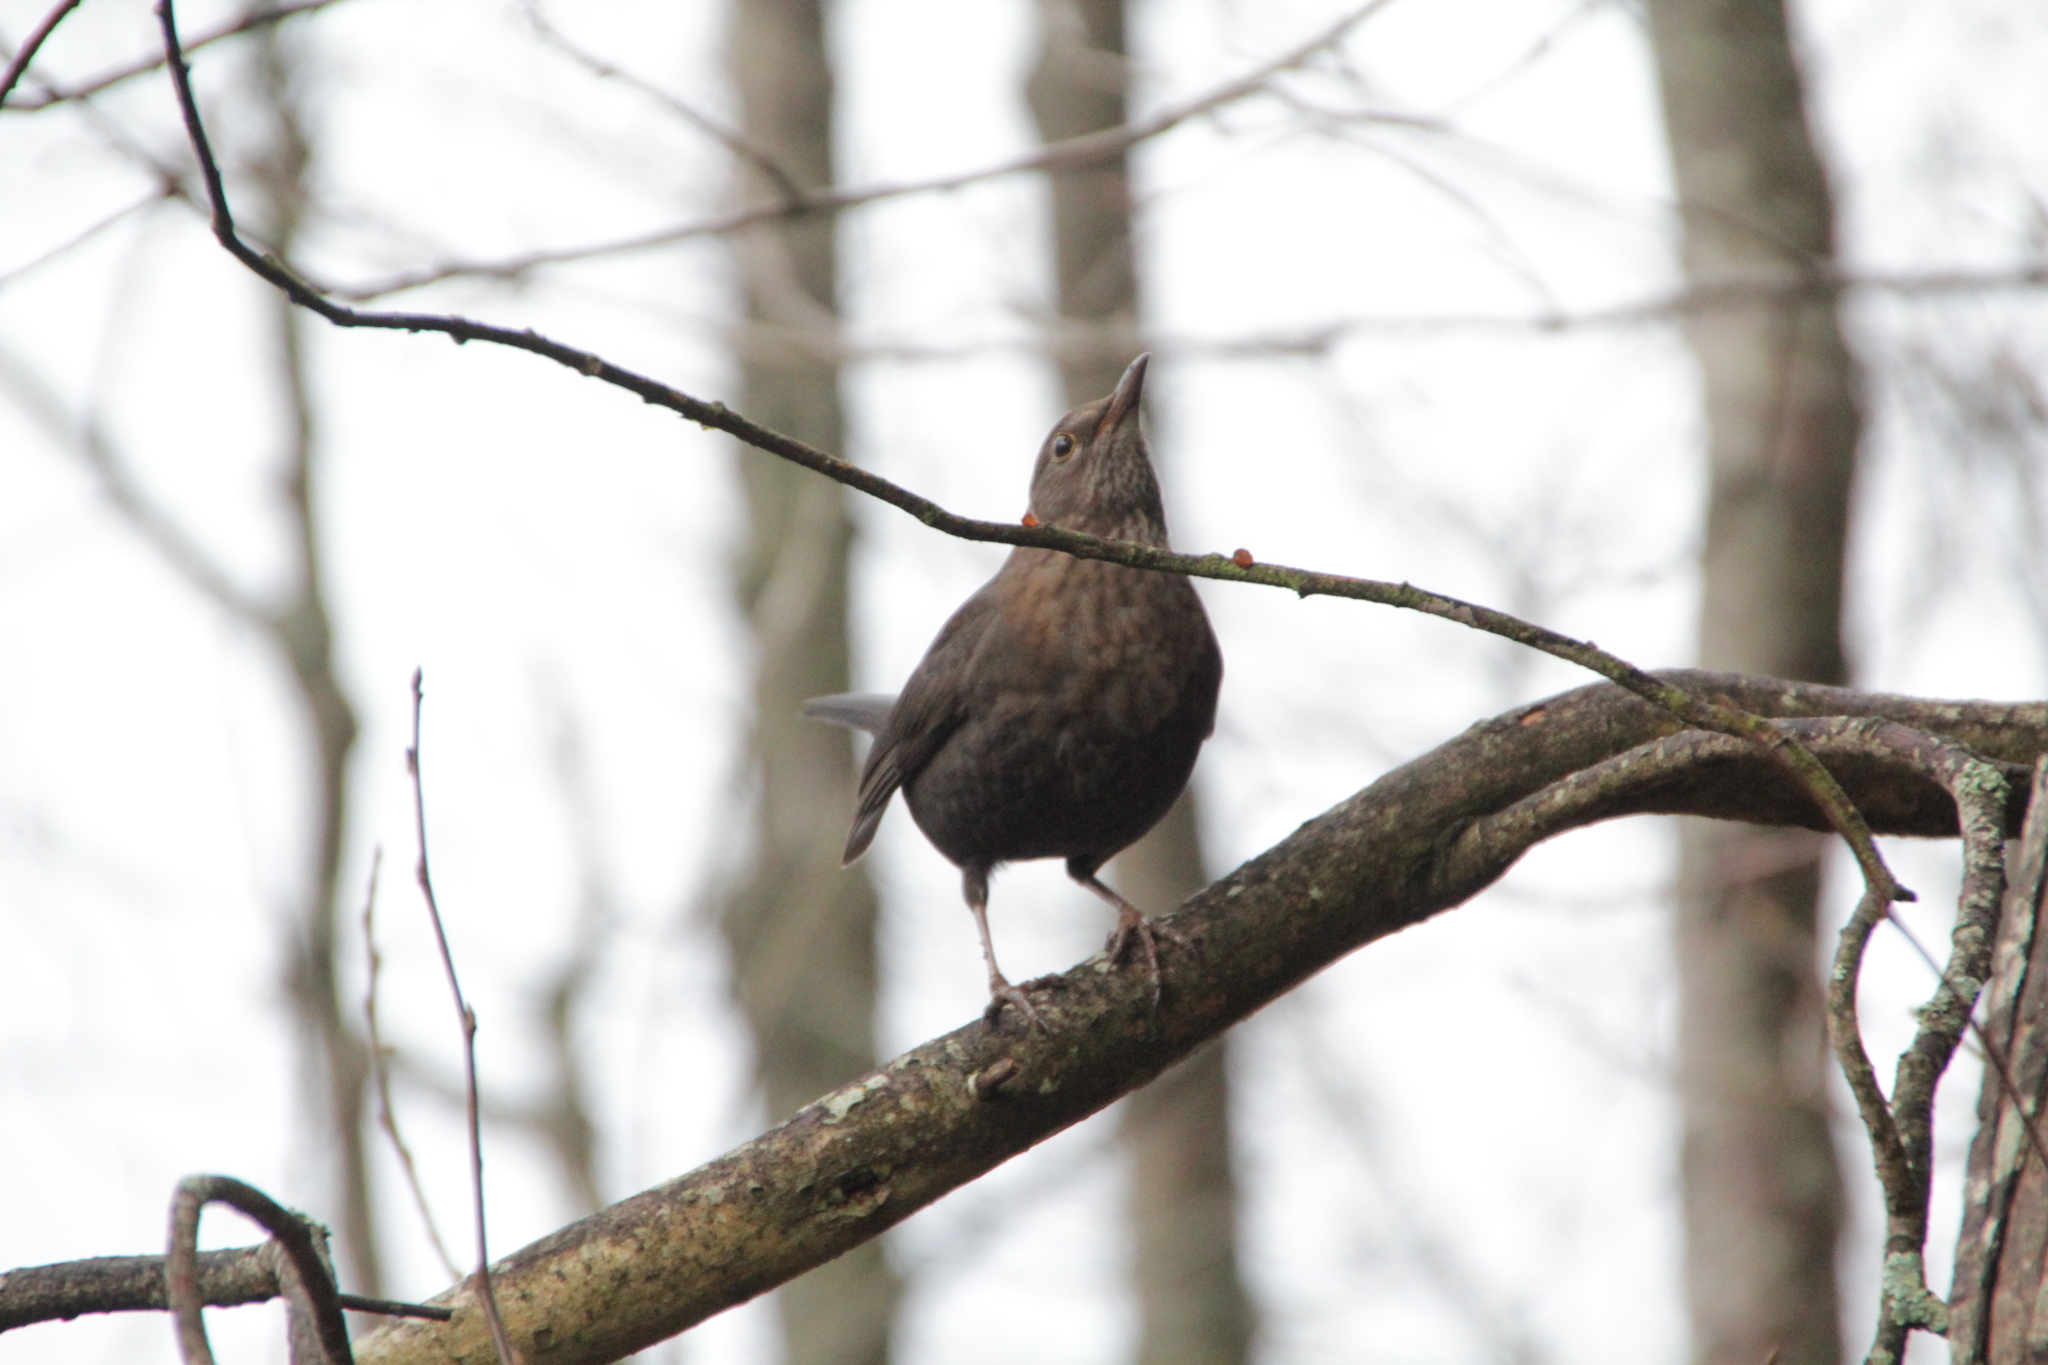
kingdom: Animalia
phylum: Chordata
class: Aves
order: Passeriformes
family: Turdidae
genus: Turdus
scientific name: Turdus merula
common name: Common blackbird
